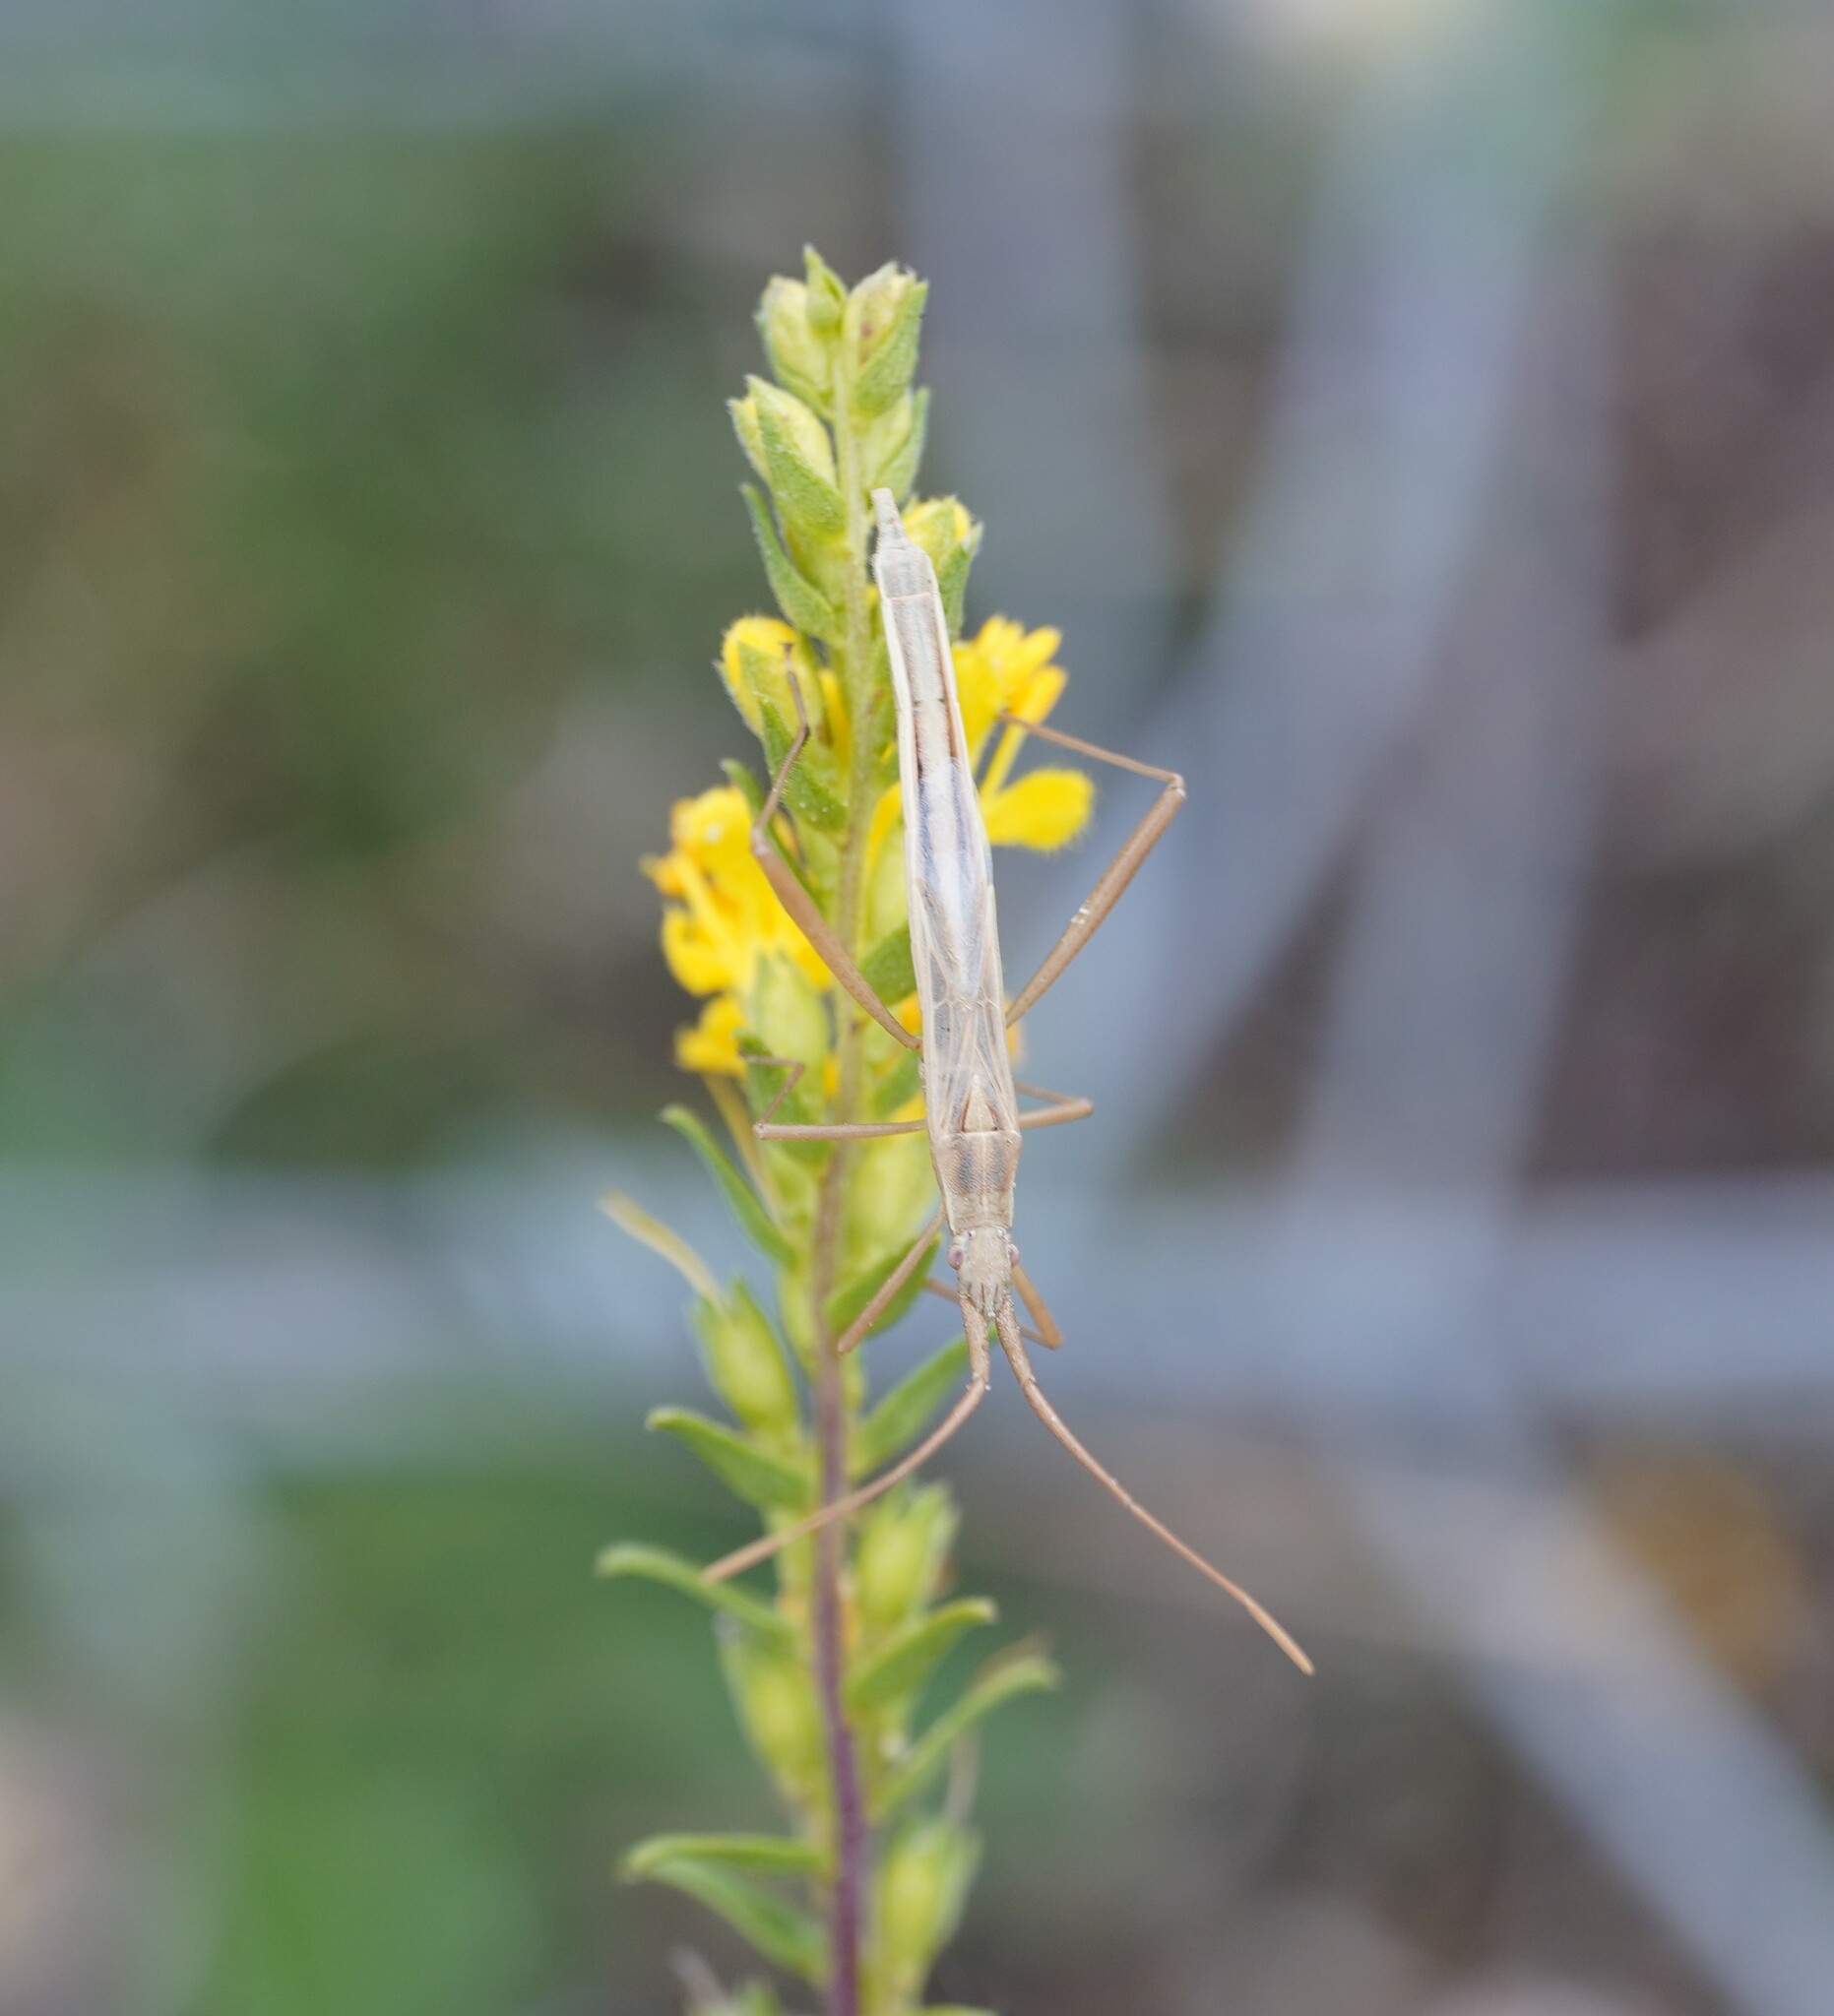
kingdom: Animalia
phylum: Arthropoda
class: Insecta
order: Hemiptera
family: Rhopalidae
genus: Chorosoma
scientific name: Chorosoma schillingii
